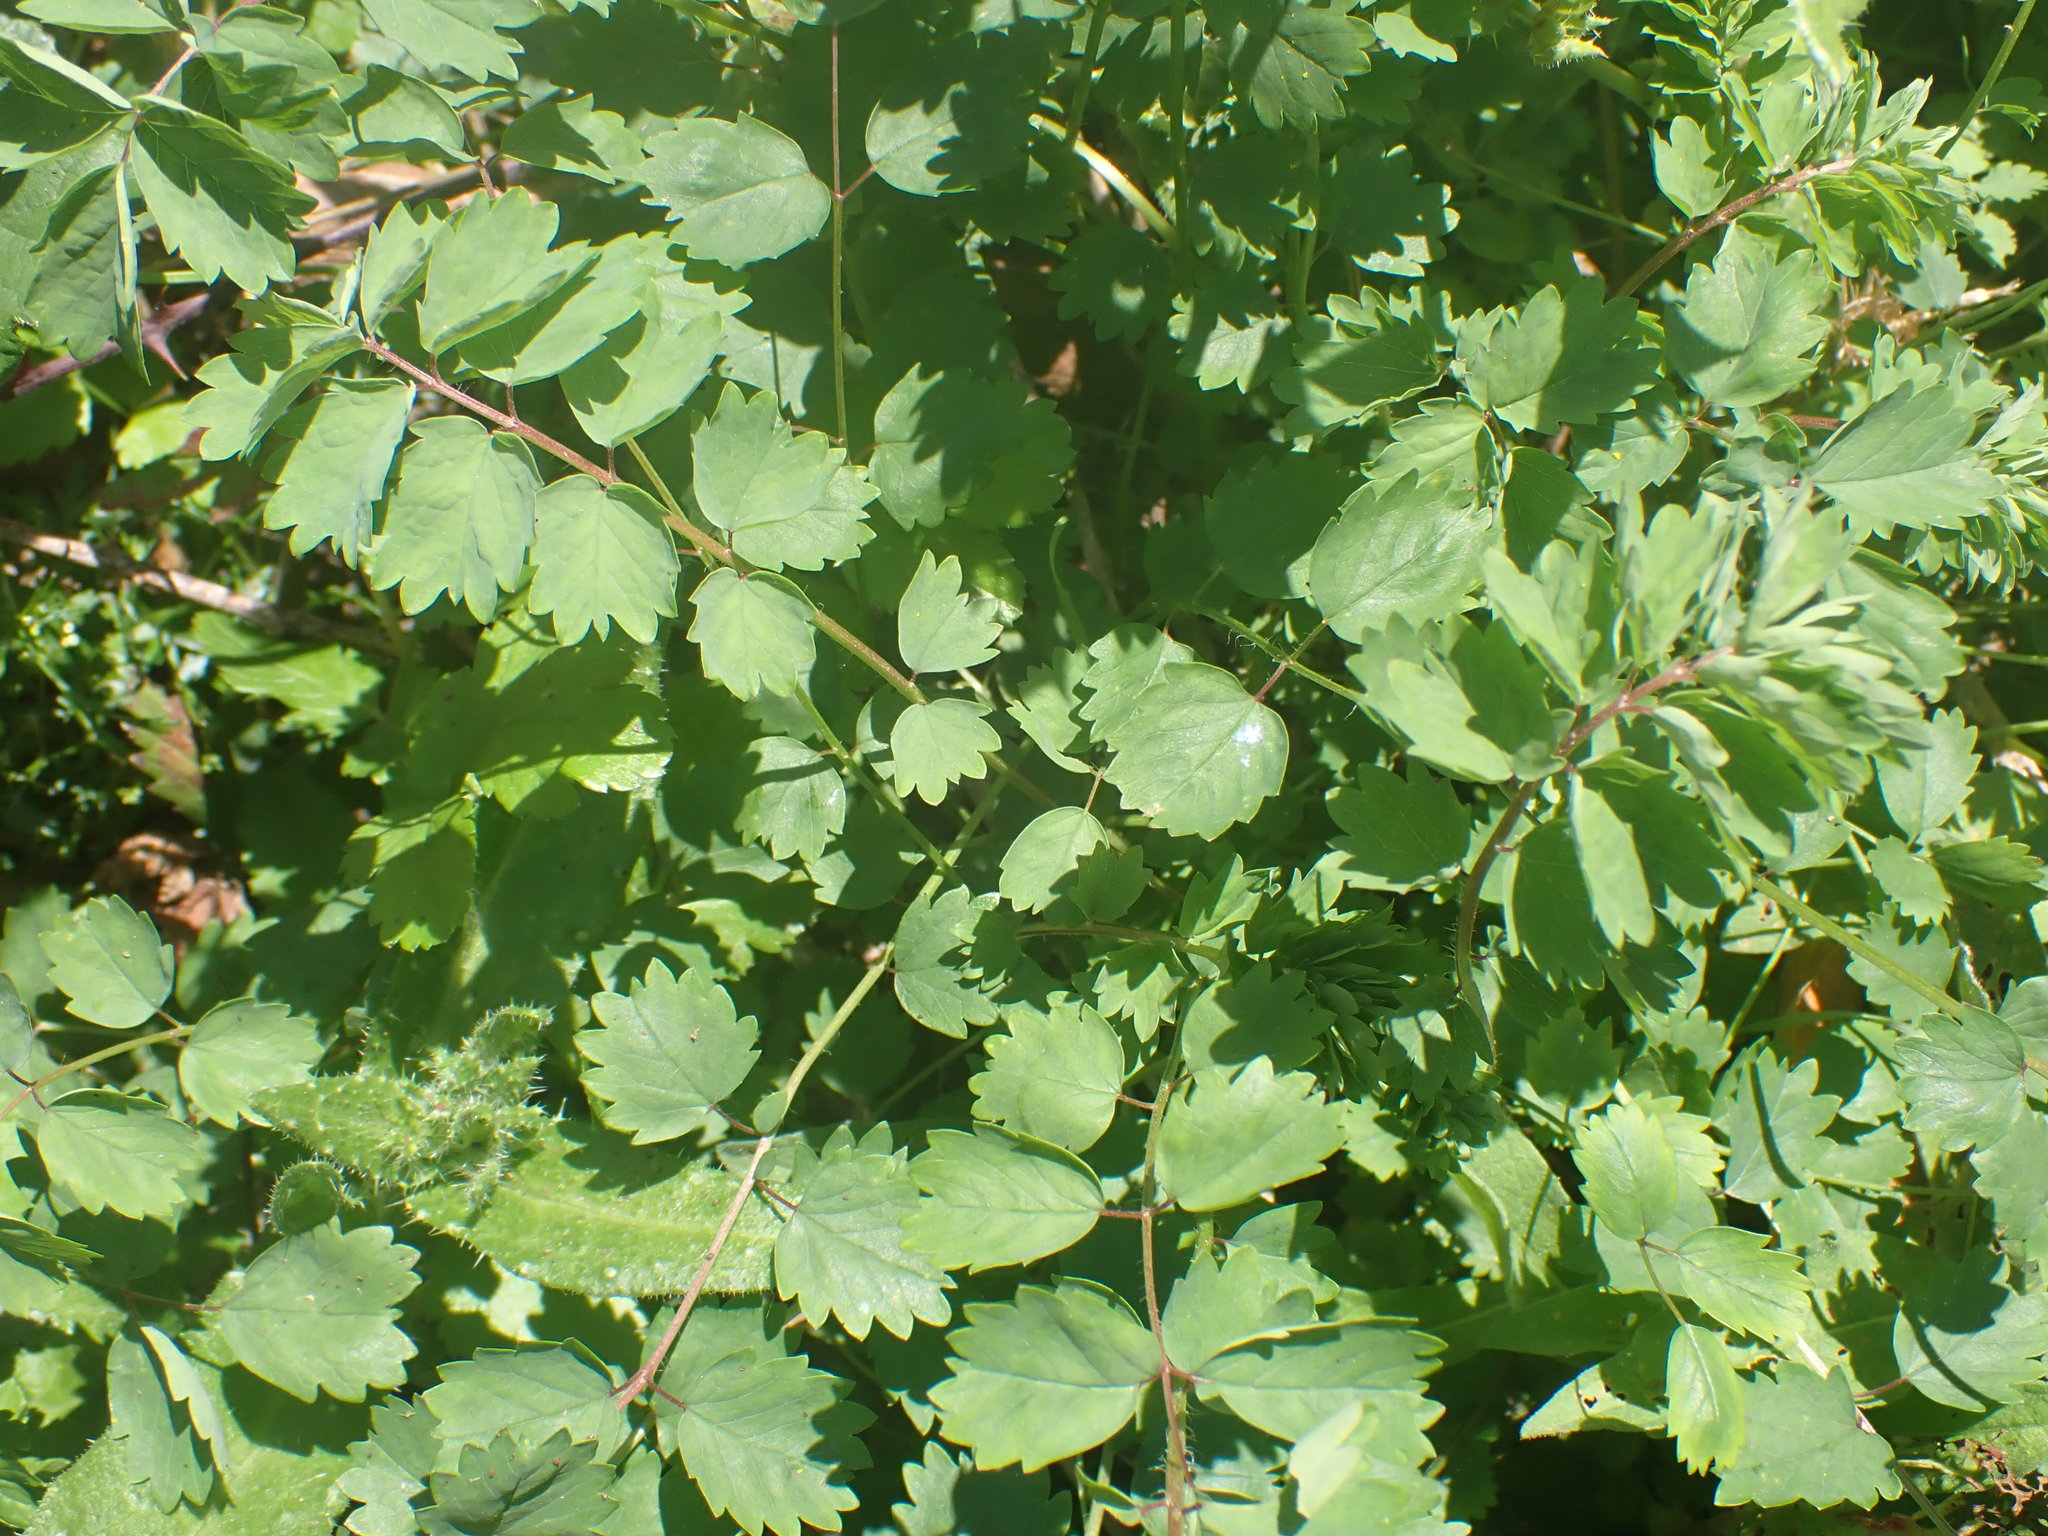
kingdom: Plantae
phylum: Tracheophyta
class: Magnoliopsida
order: Rosales
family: Rosaceae
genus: Poterium
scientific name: Poterium sanguisorba
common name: Salad burnet
